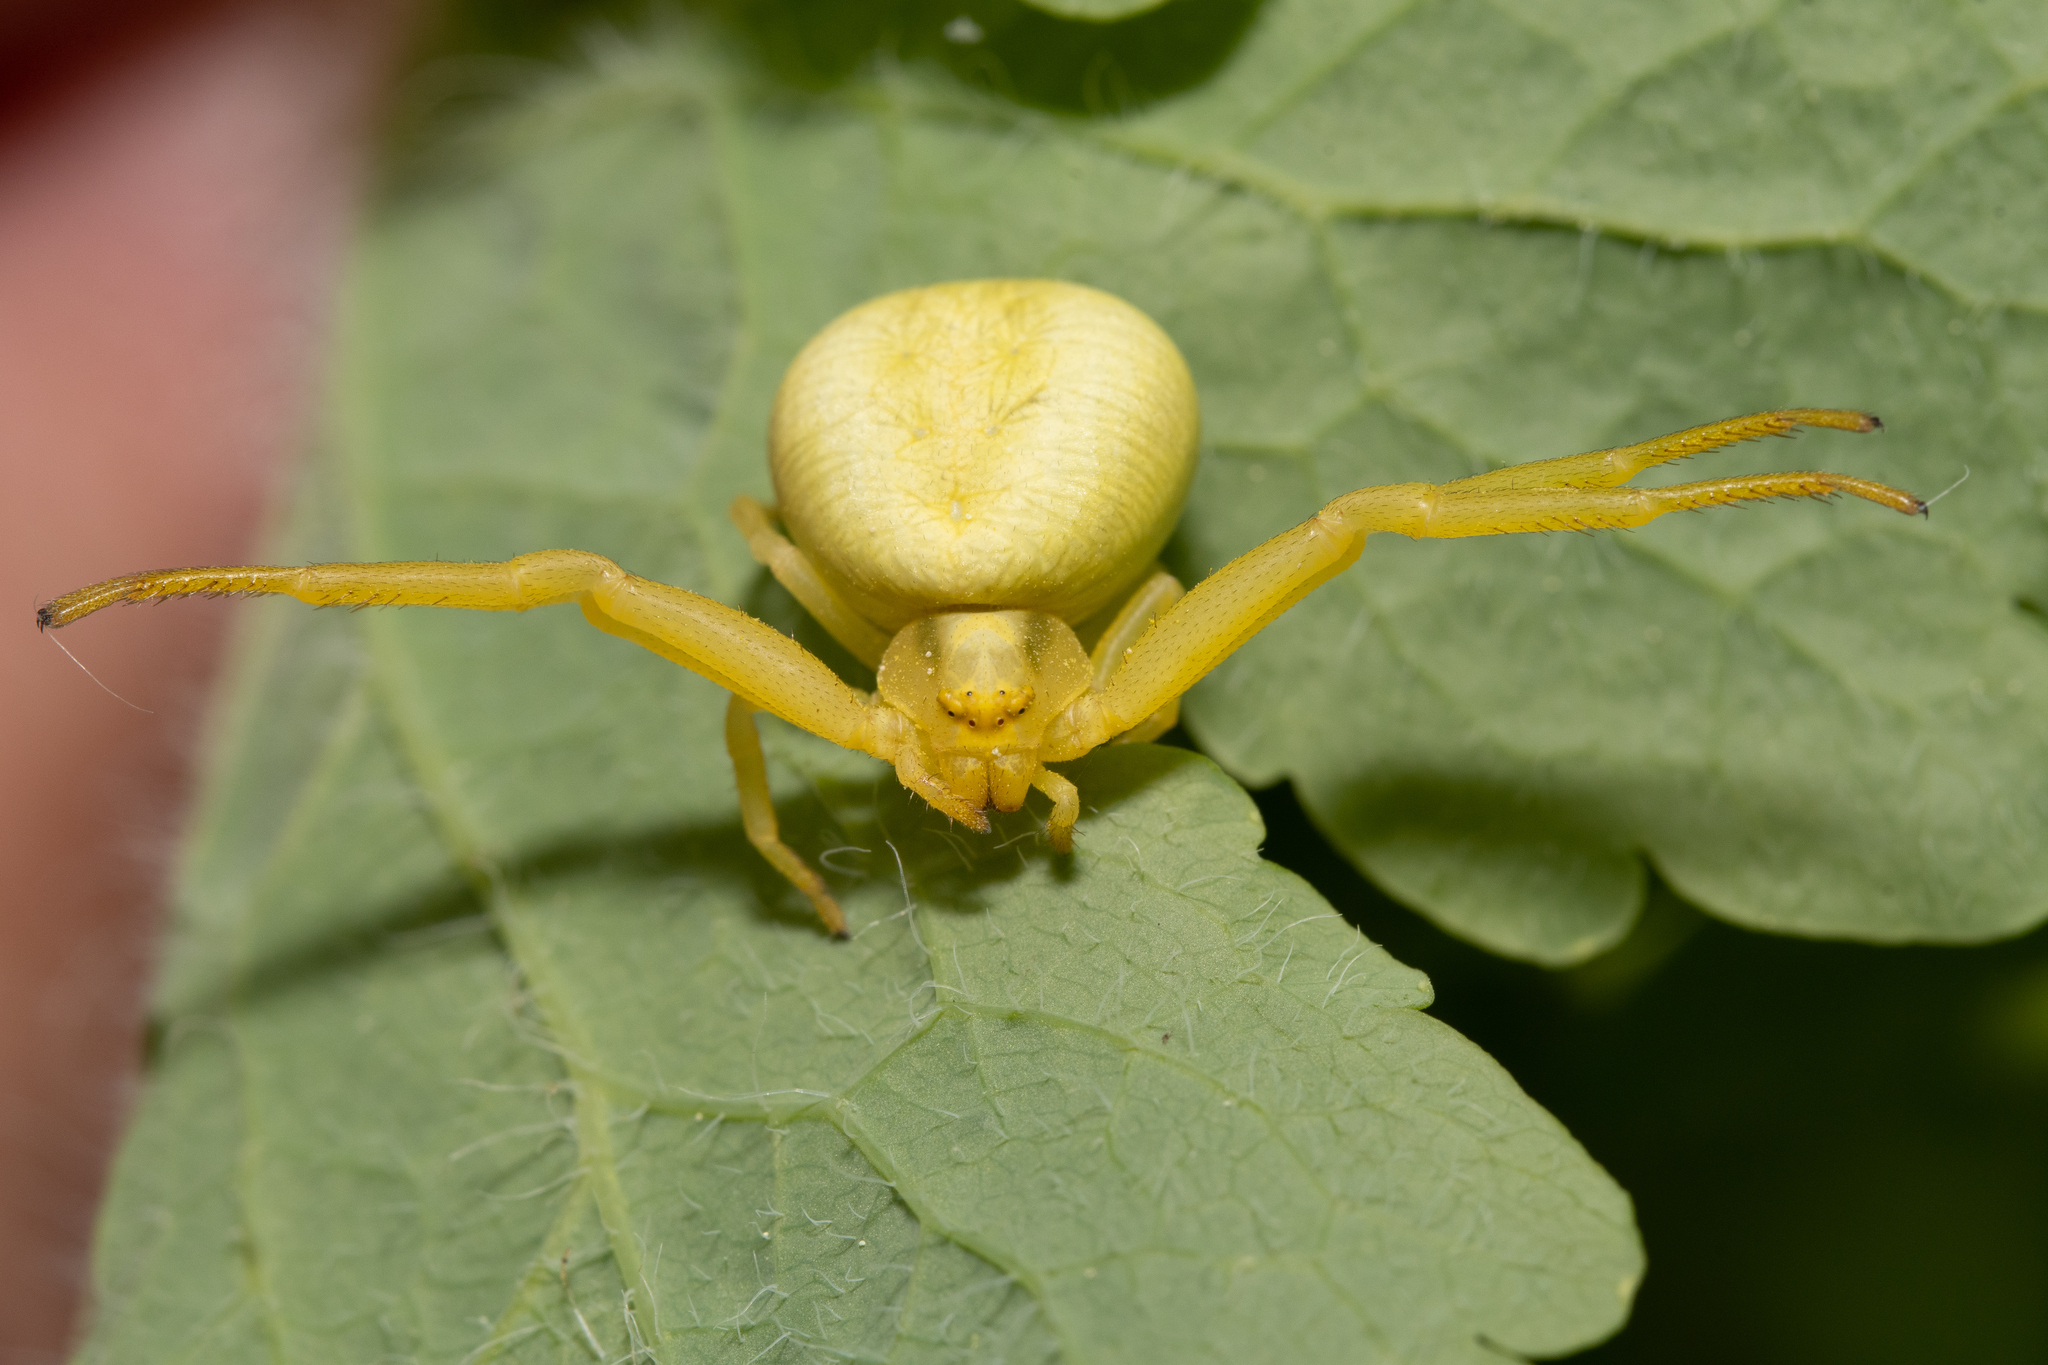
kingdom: Animalia
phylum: Arthropoda
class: Arachnida
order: Araneae
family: Thomisidae
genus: Misumena
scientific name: Misumena vatia
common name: Goldenrod crab spider
